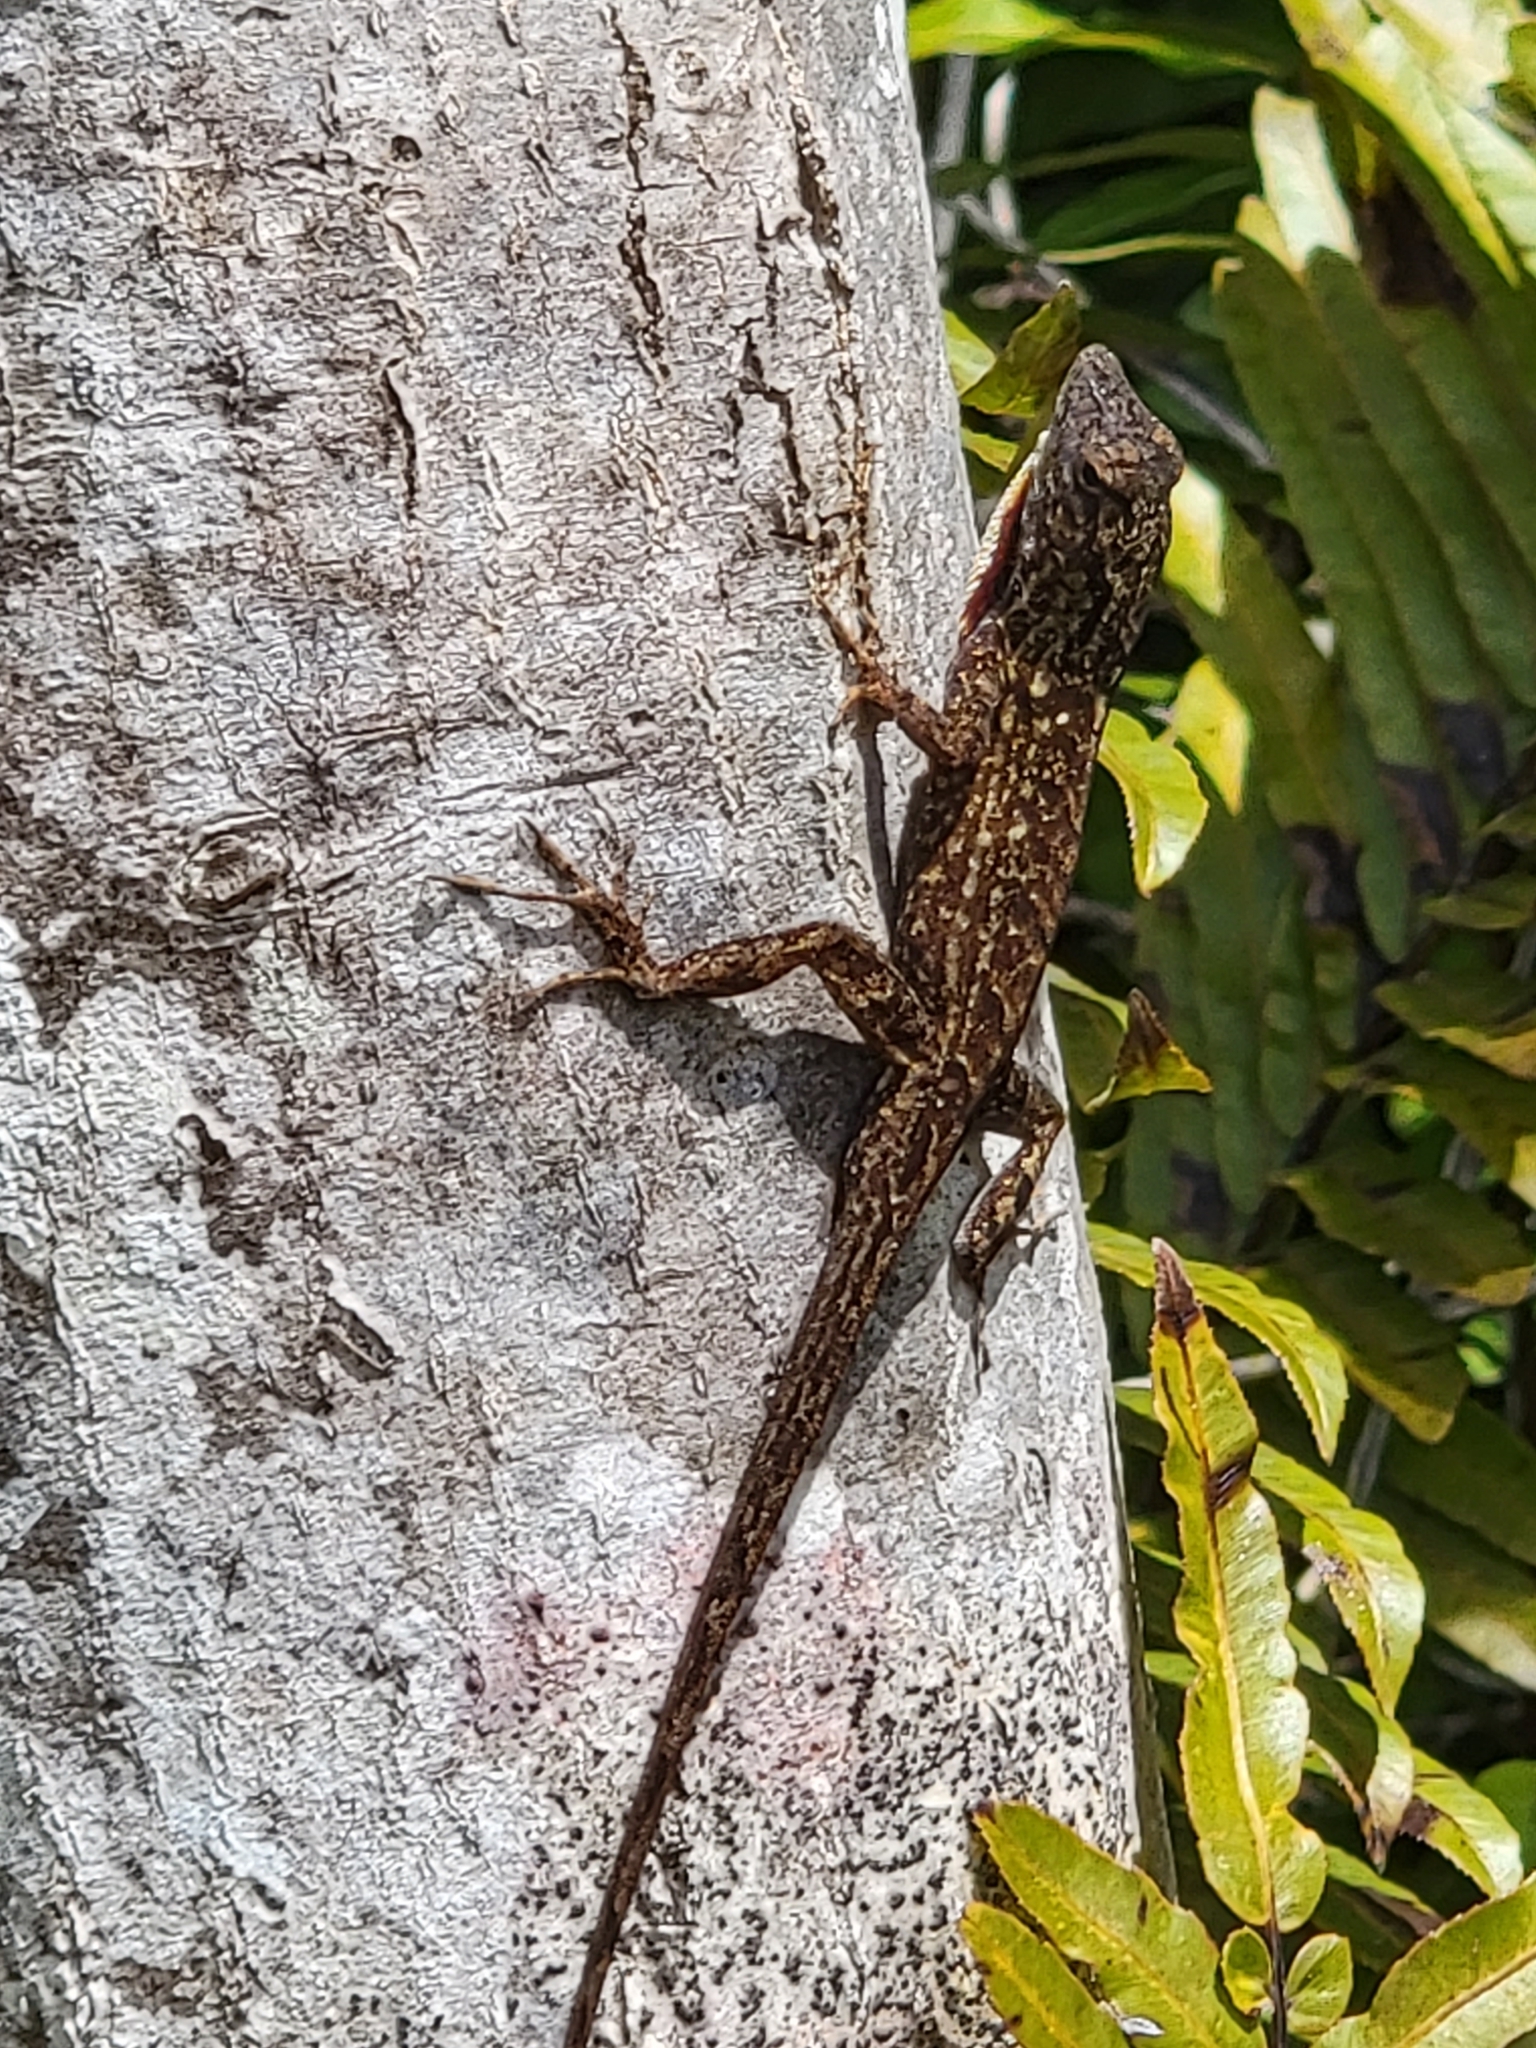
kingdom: Animalia
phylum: Chordata
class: Squamata
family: Dactyloidae
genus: Anolis
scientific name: Anolis sagrei
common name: Brown anole
